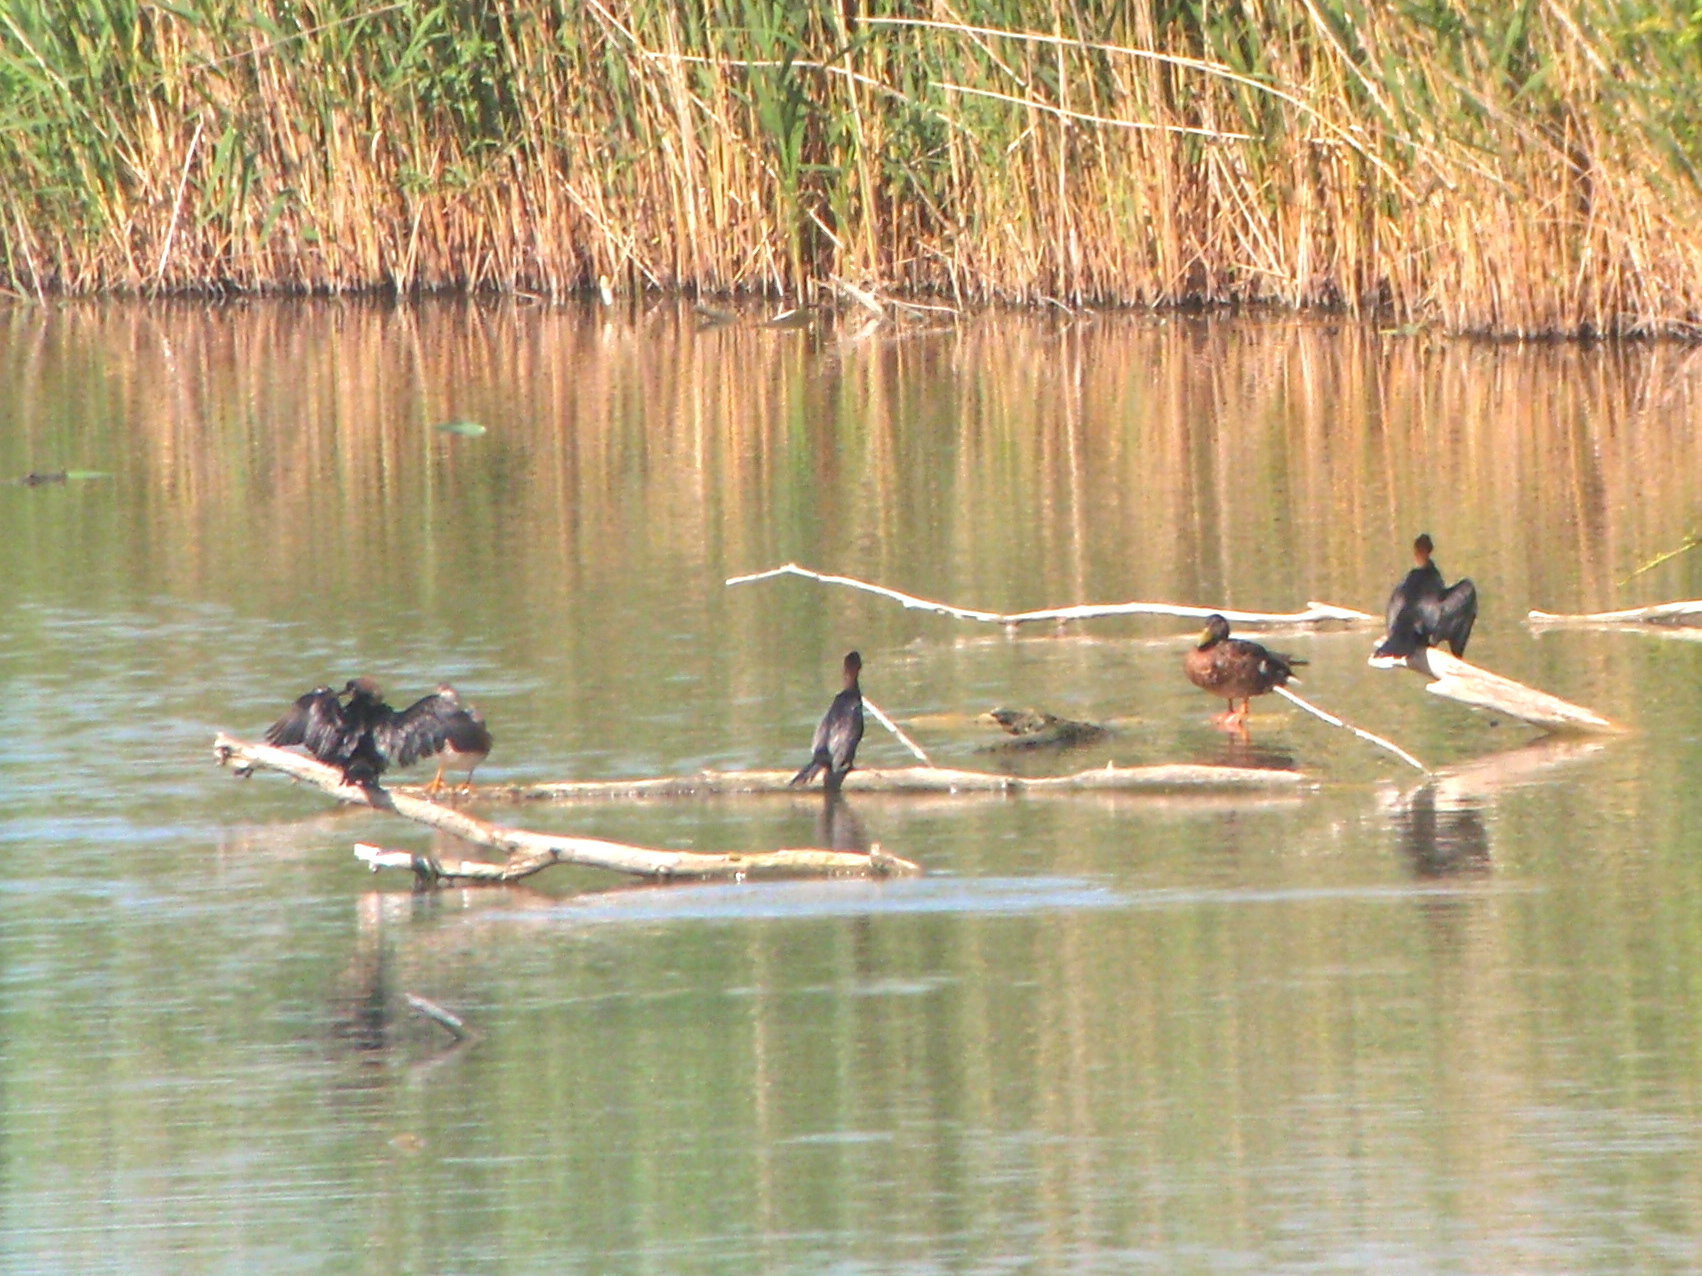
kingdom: Animalia
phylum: Chordata
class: Aves
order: Suliformes
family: Phalacrocoracidae
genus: Microcarbo
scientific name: Microcarbo pygmaeus
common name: Pygmy cormorant
